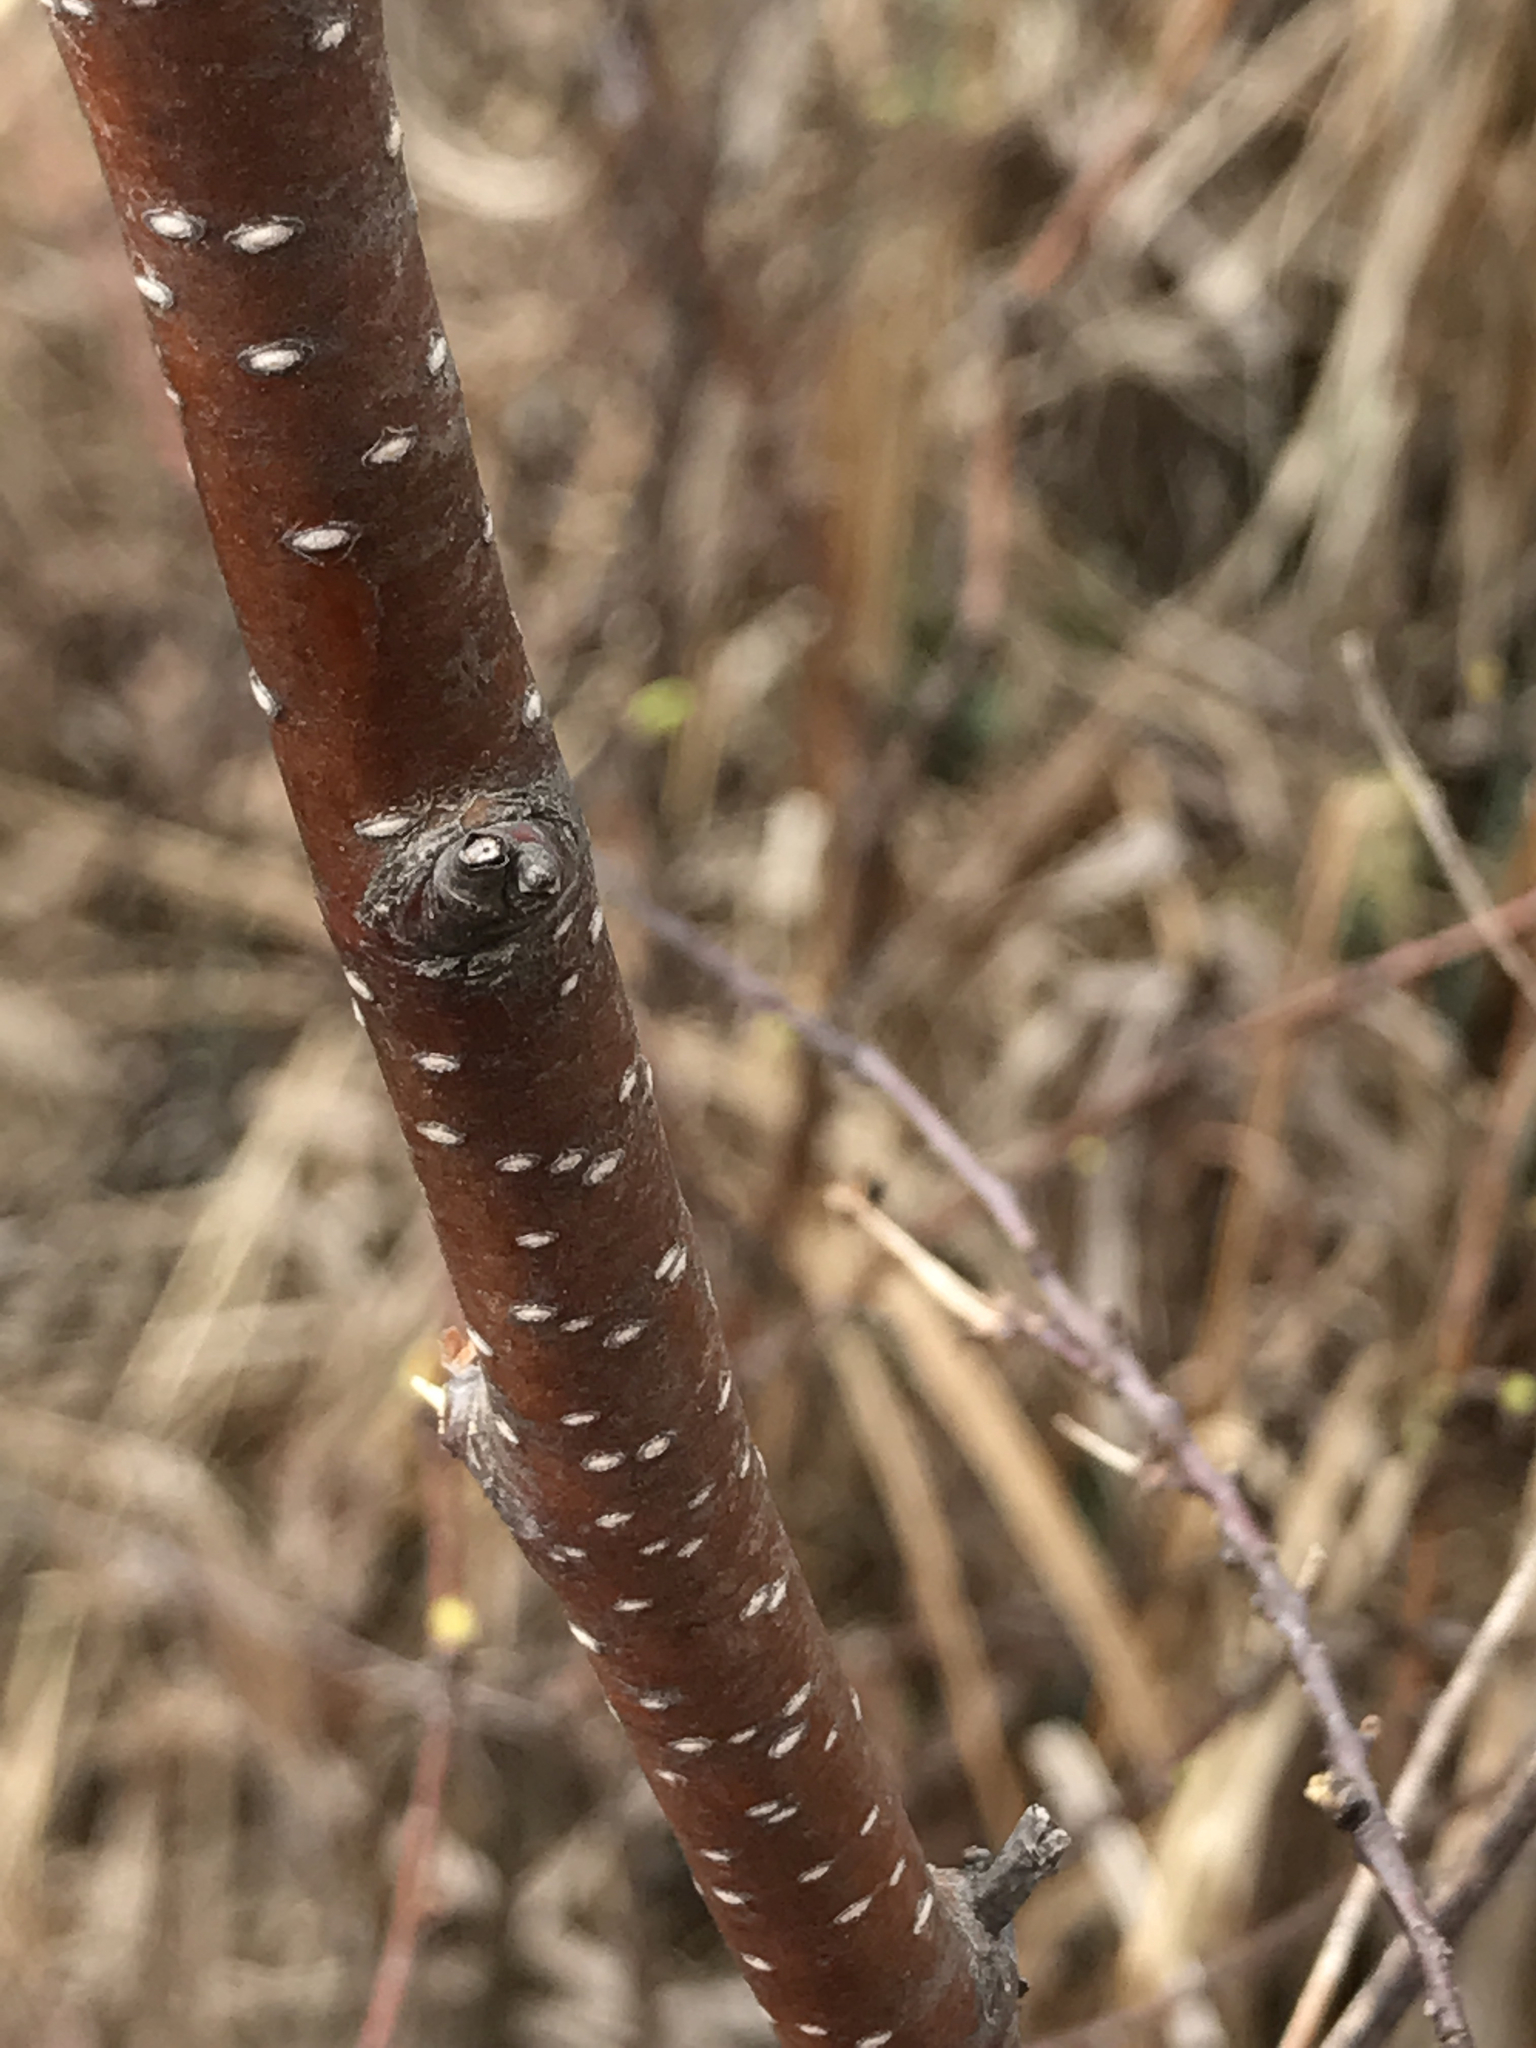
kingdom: Plantae
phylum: Tracheophyta
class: Magnoliopsida
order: Fagales
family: Betulaceae
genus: Betula
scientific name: Betula pumila
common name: Bog birch
